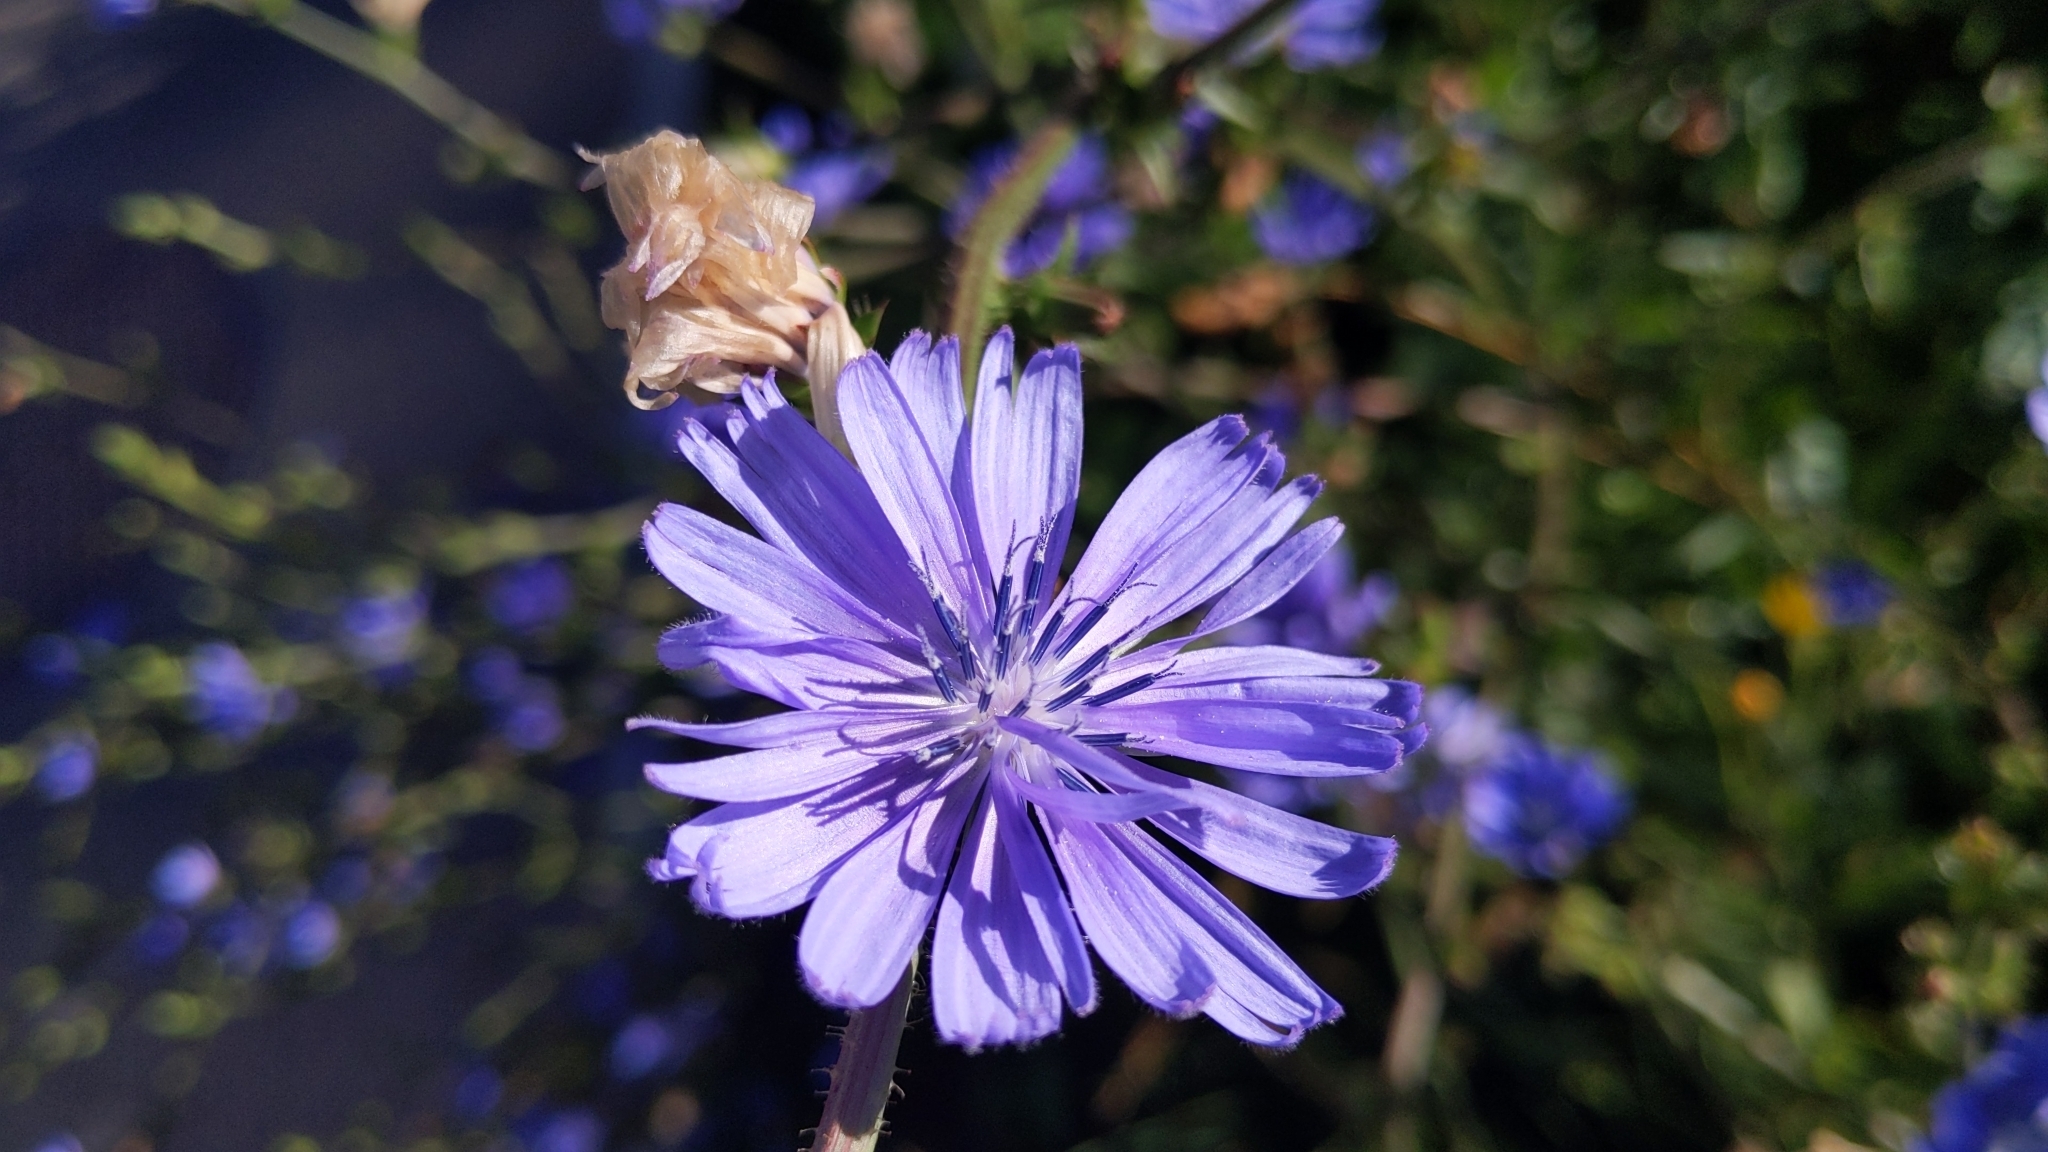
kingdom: Plantae
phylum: Tracheophyta
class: Magnoliopsida
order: Asterales
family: Asteraceae
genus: Cichorium
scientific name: Cichorium intybus
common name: Chicory
